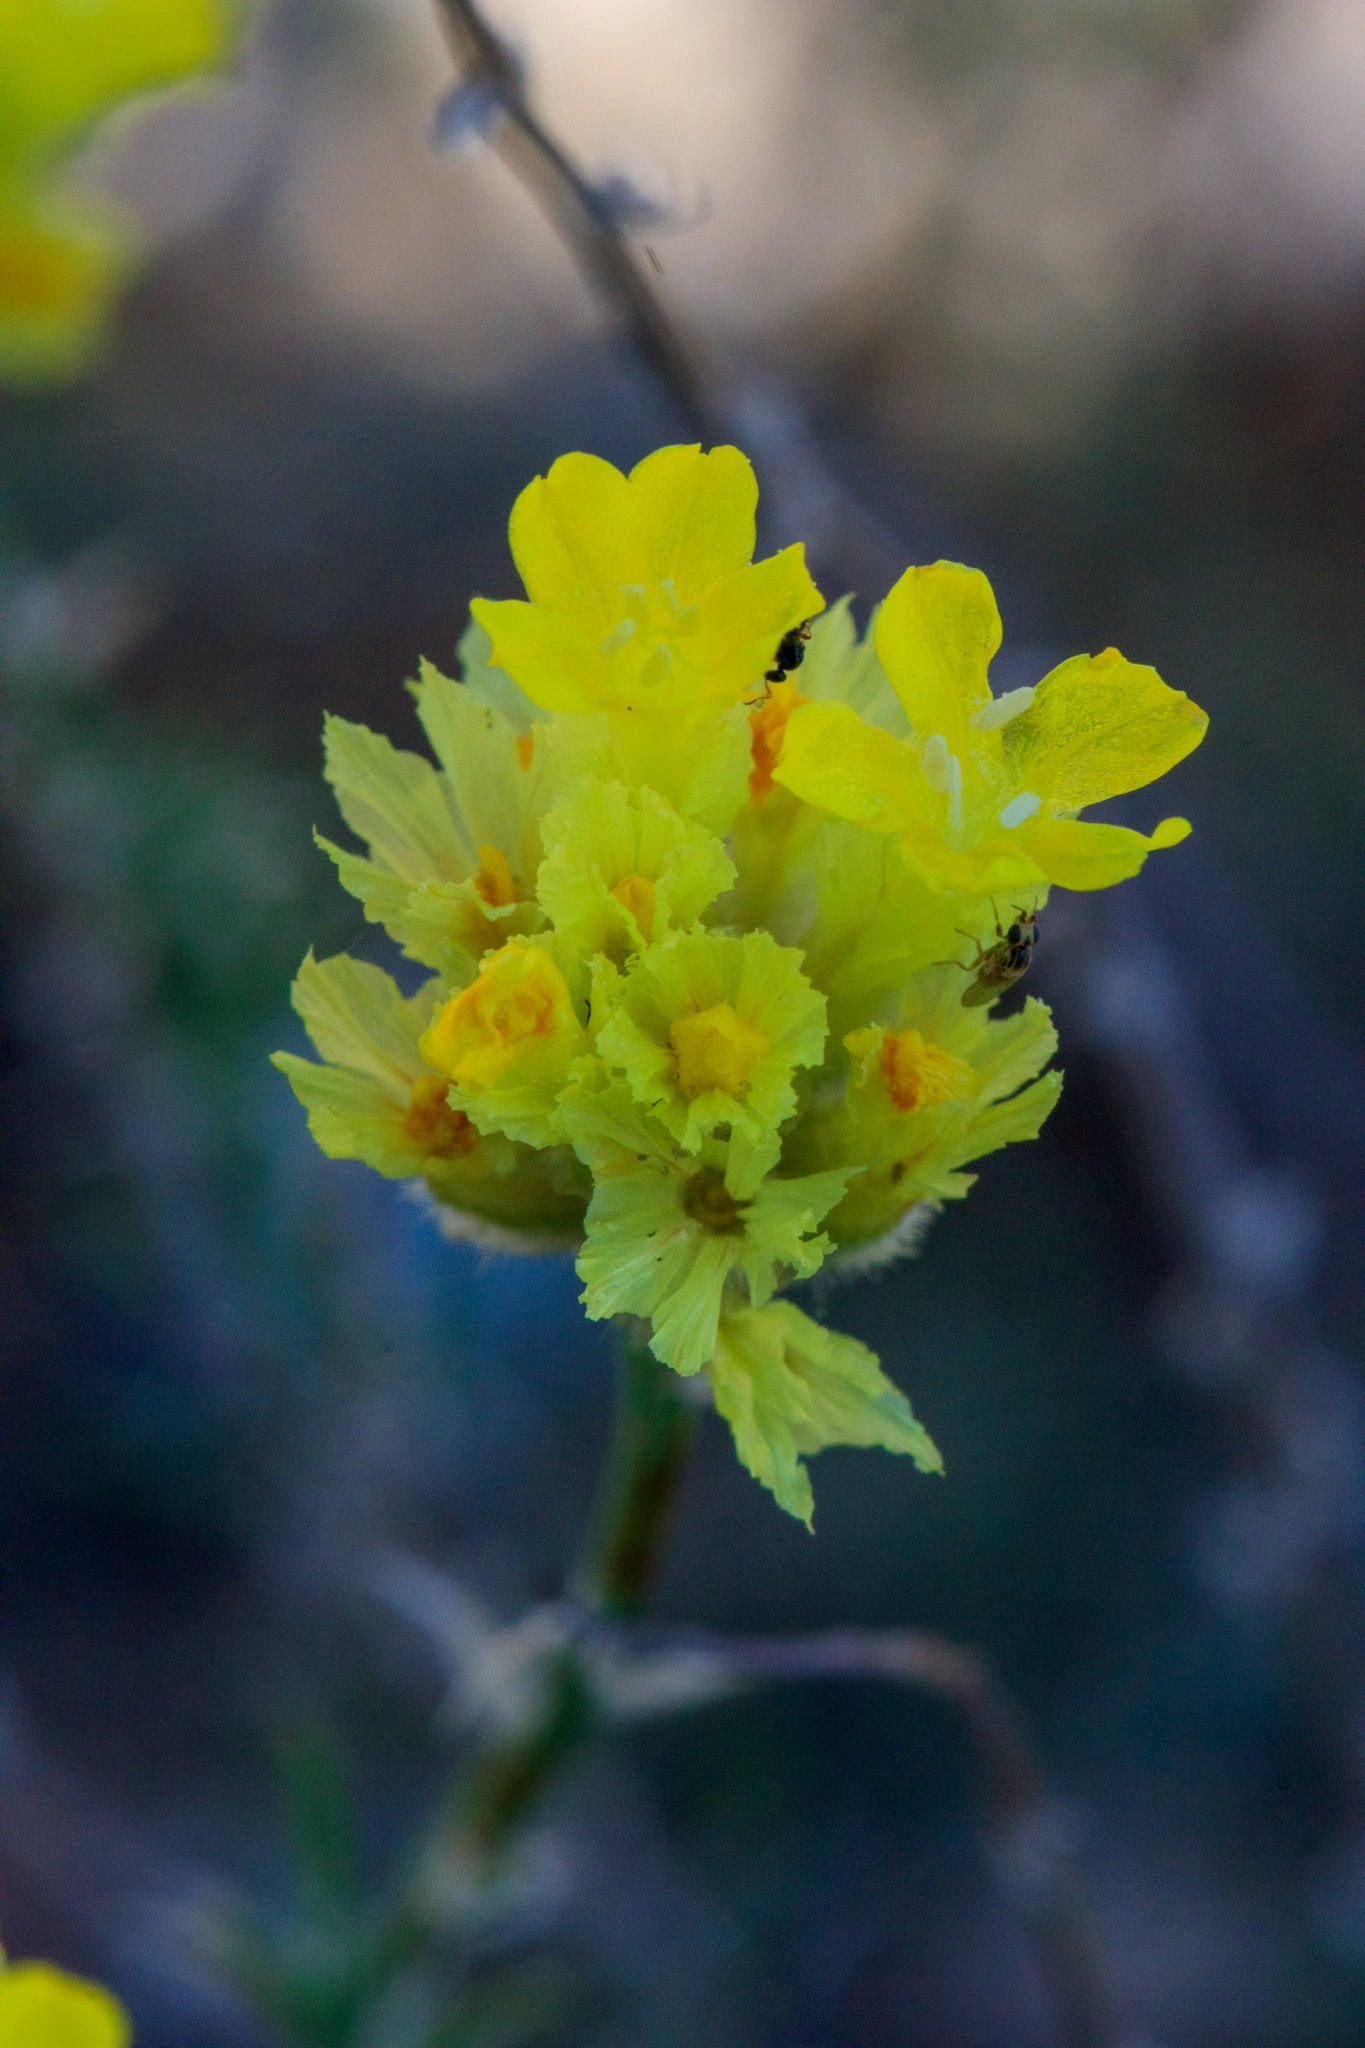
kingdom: Plantae
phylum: Tracheophyta
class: Magnoliopsida
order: Caryophyllales
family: Plumbaginaceae
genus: Limonium
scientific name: Limonium chrysocomum
